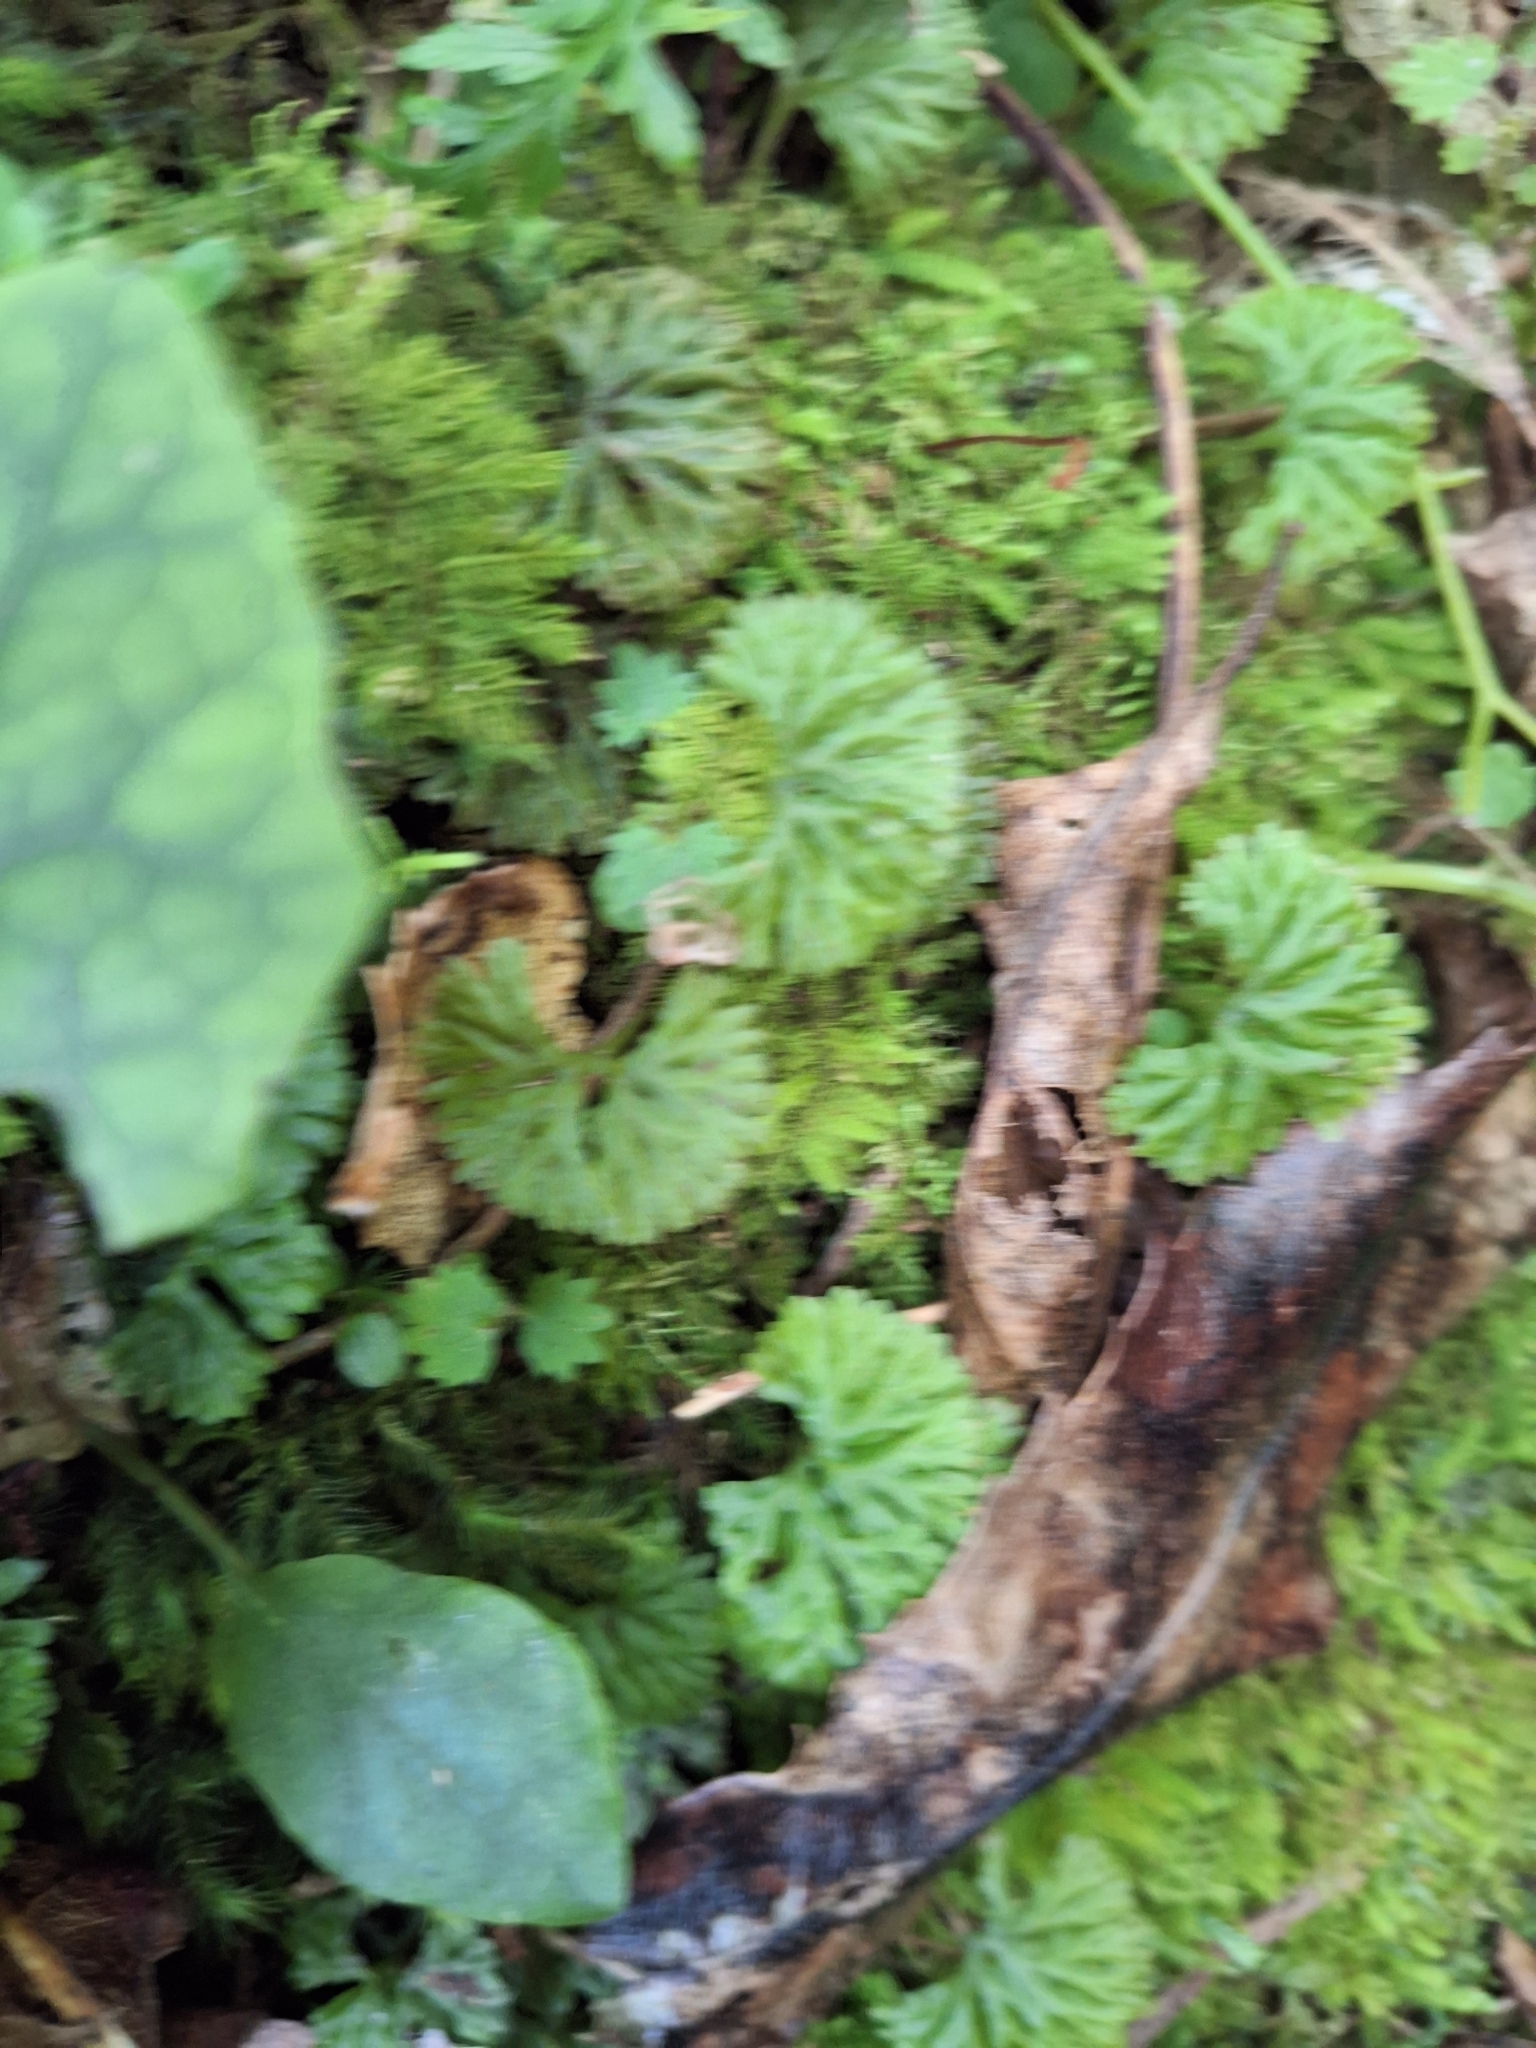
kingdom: Plantae
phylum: Marchantiophyta
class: Jungermanniopsida
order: Pallaviciniales
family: Hymenophytaceae
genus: Hymenophyton
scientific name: Hymenophyton flabellatum
